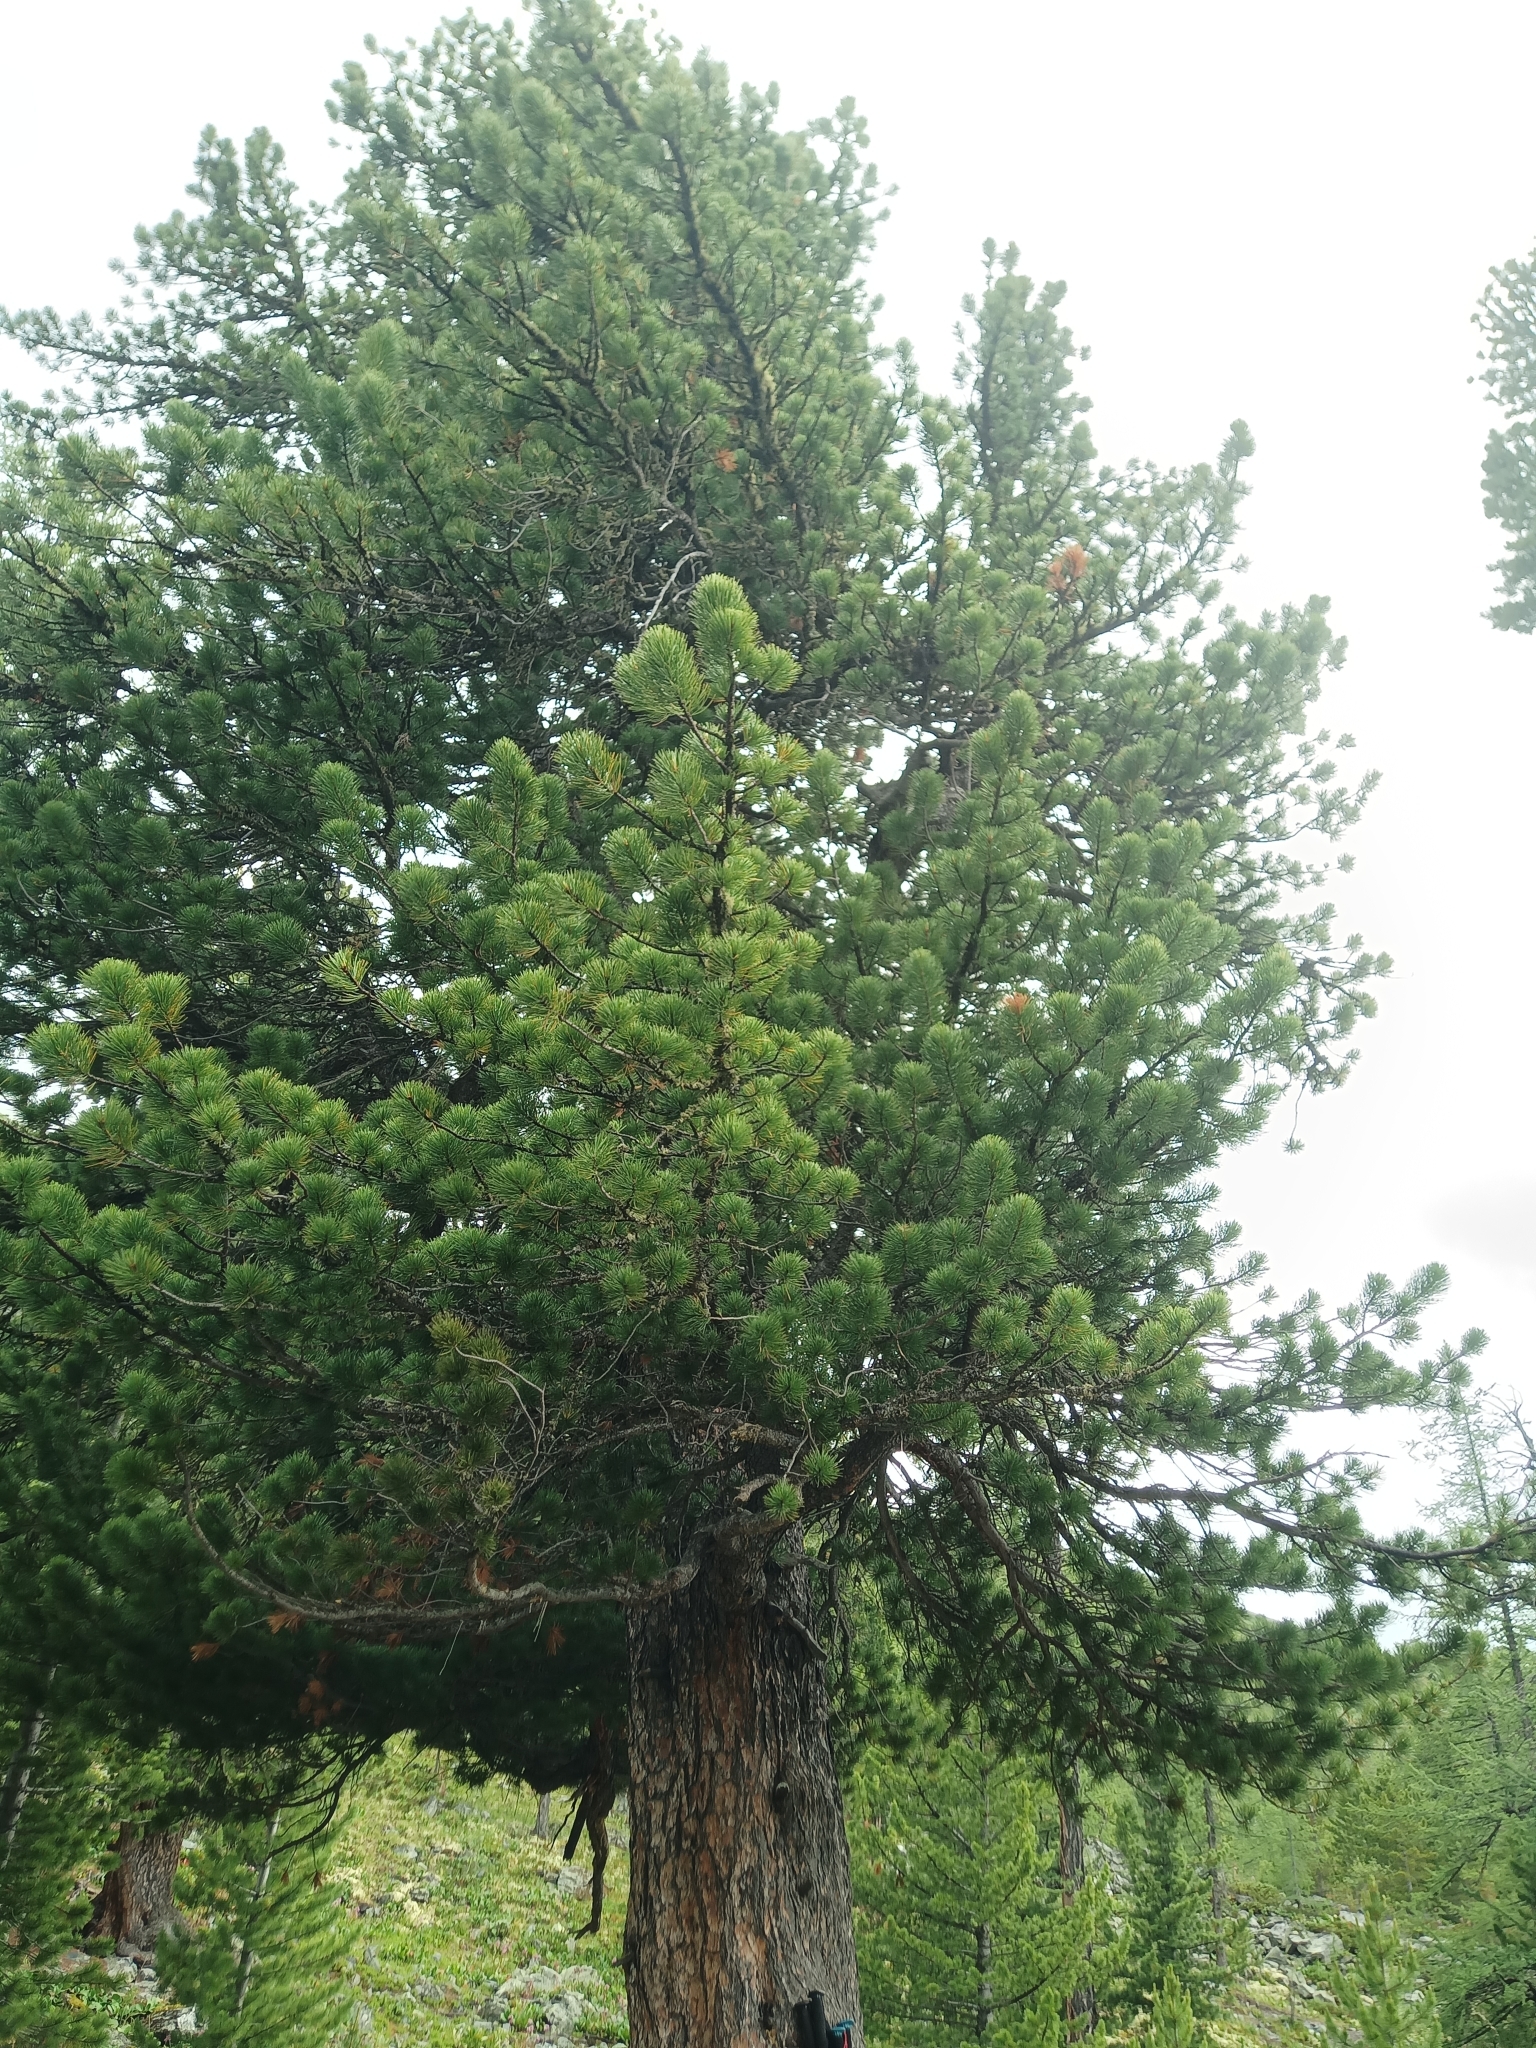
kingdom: Plantae
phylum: Tracheophyta
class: Pinopsida
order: Pinales
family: Pinaceae
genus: Pinus
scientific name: Pinus sibirica
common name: Siberian pine
